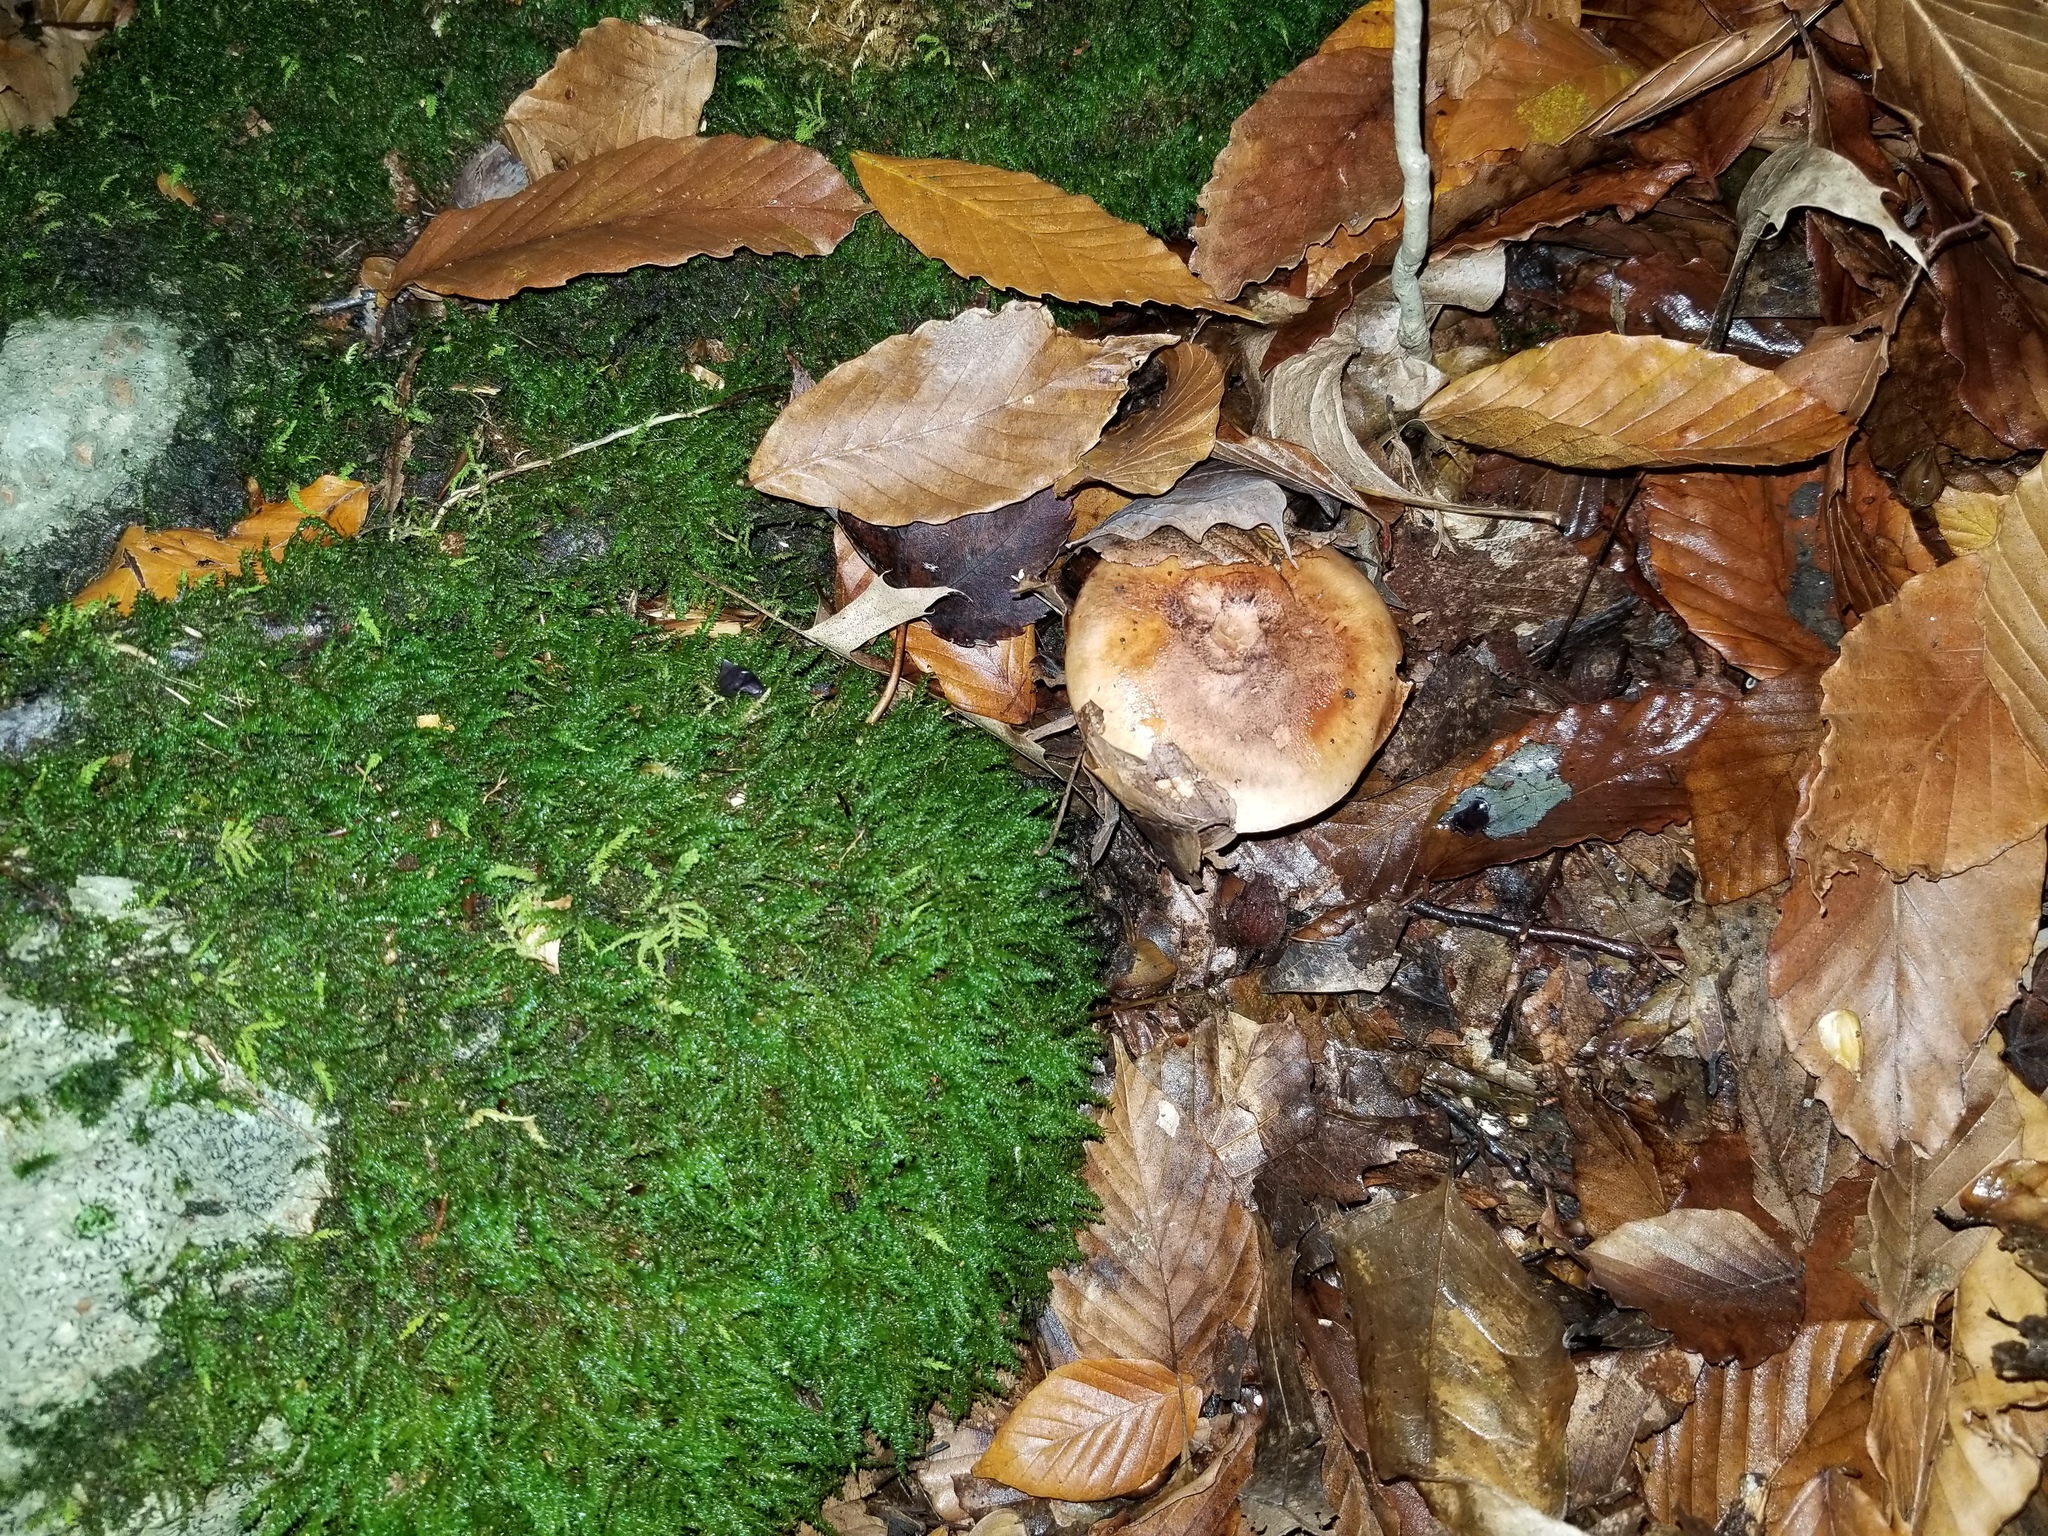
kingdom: Fungi
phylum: Basidiomycota
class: Agaricomycetes
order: Agaricales
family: Tricholomataceae
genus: Tricholoma
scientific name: Tricholoma fulvum
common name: Birch knight
